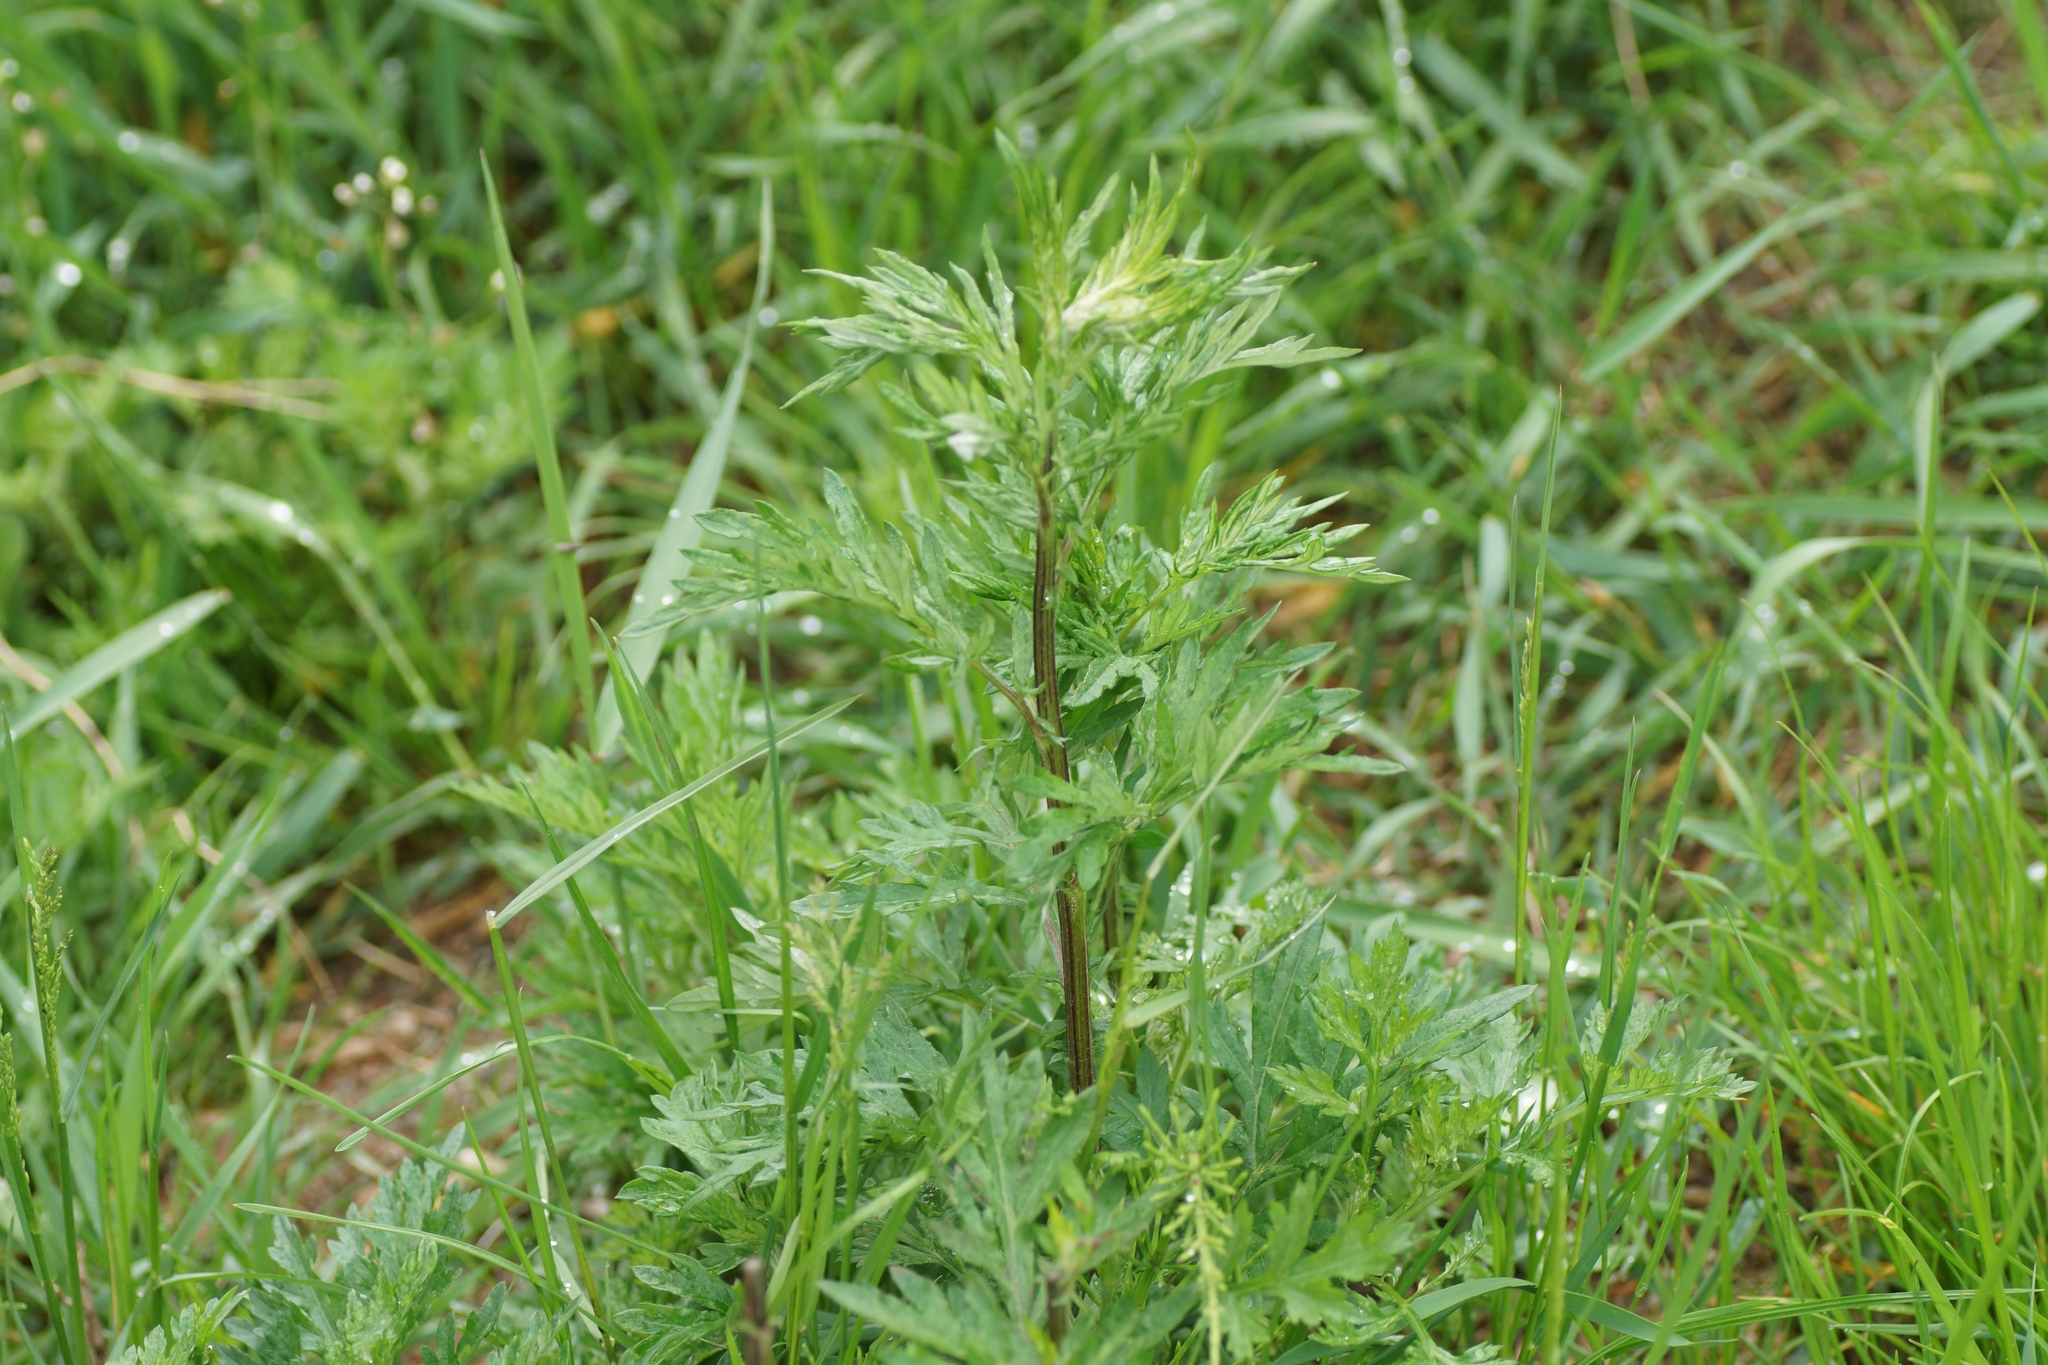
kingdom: Plantae
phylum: Tracheophyta
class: Magnoliopsida
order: Asterales
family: Asteraceae
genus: Artemisia
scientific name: Artemisia vulgaris
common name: Mugwort
